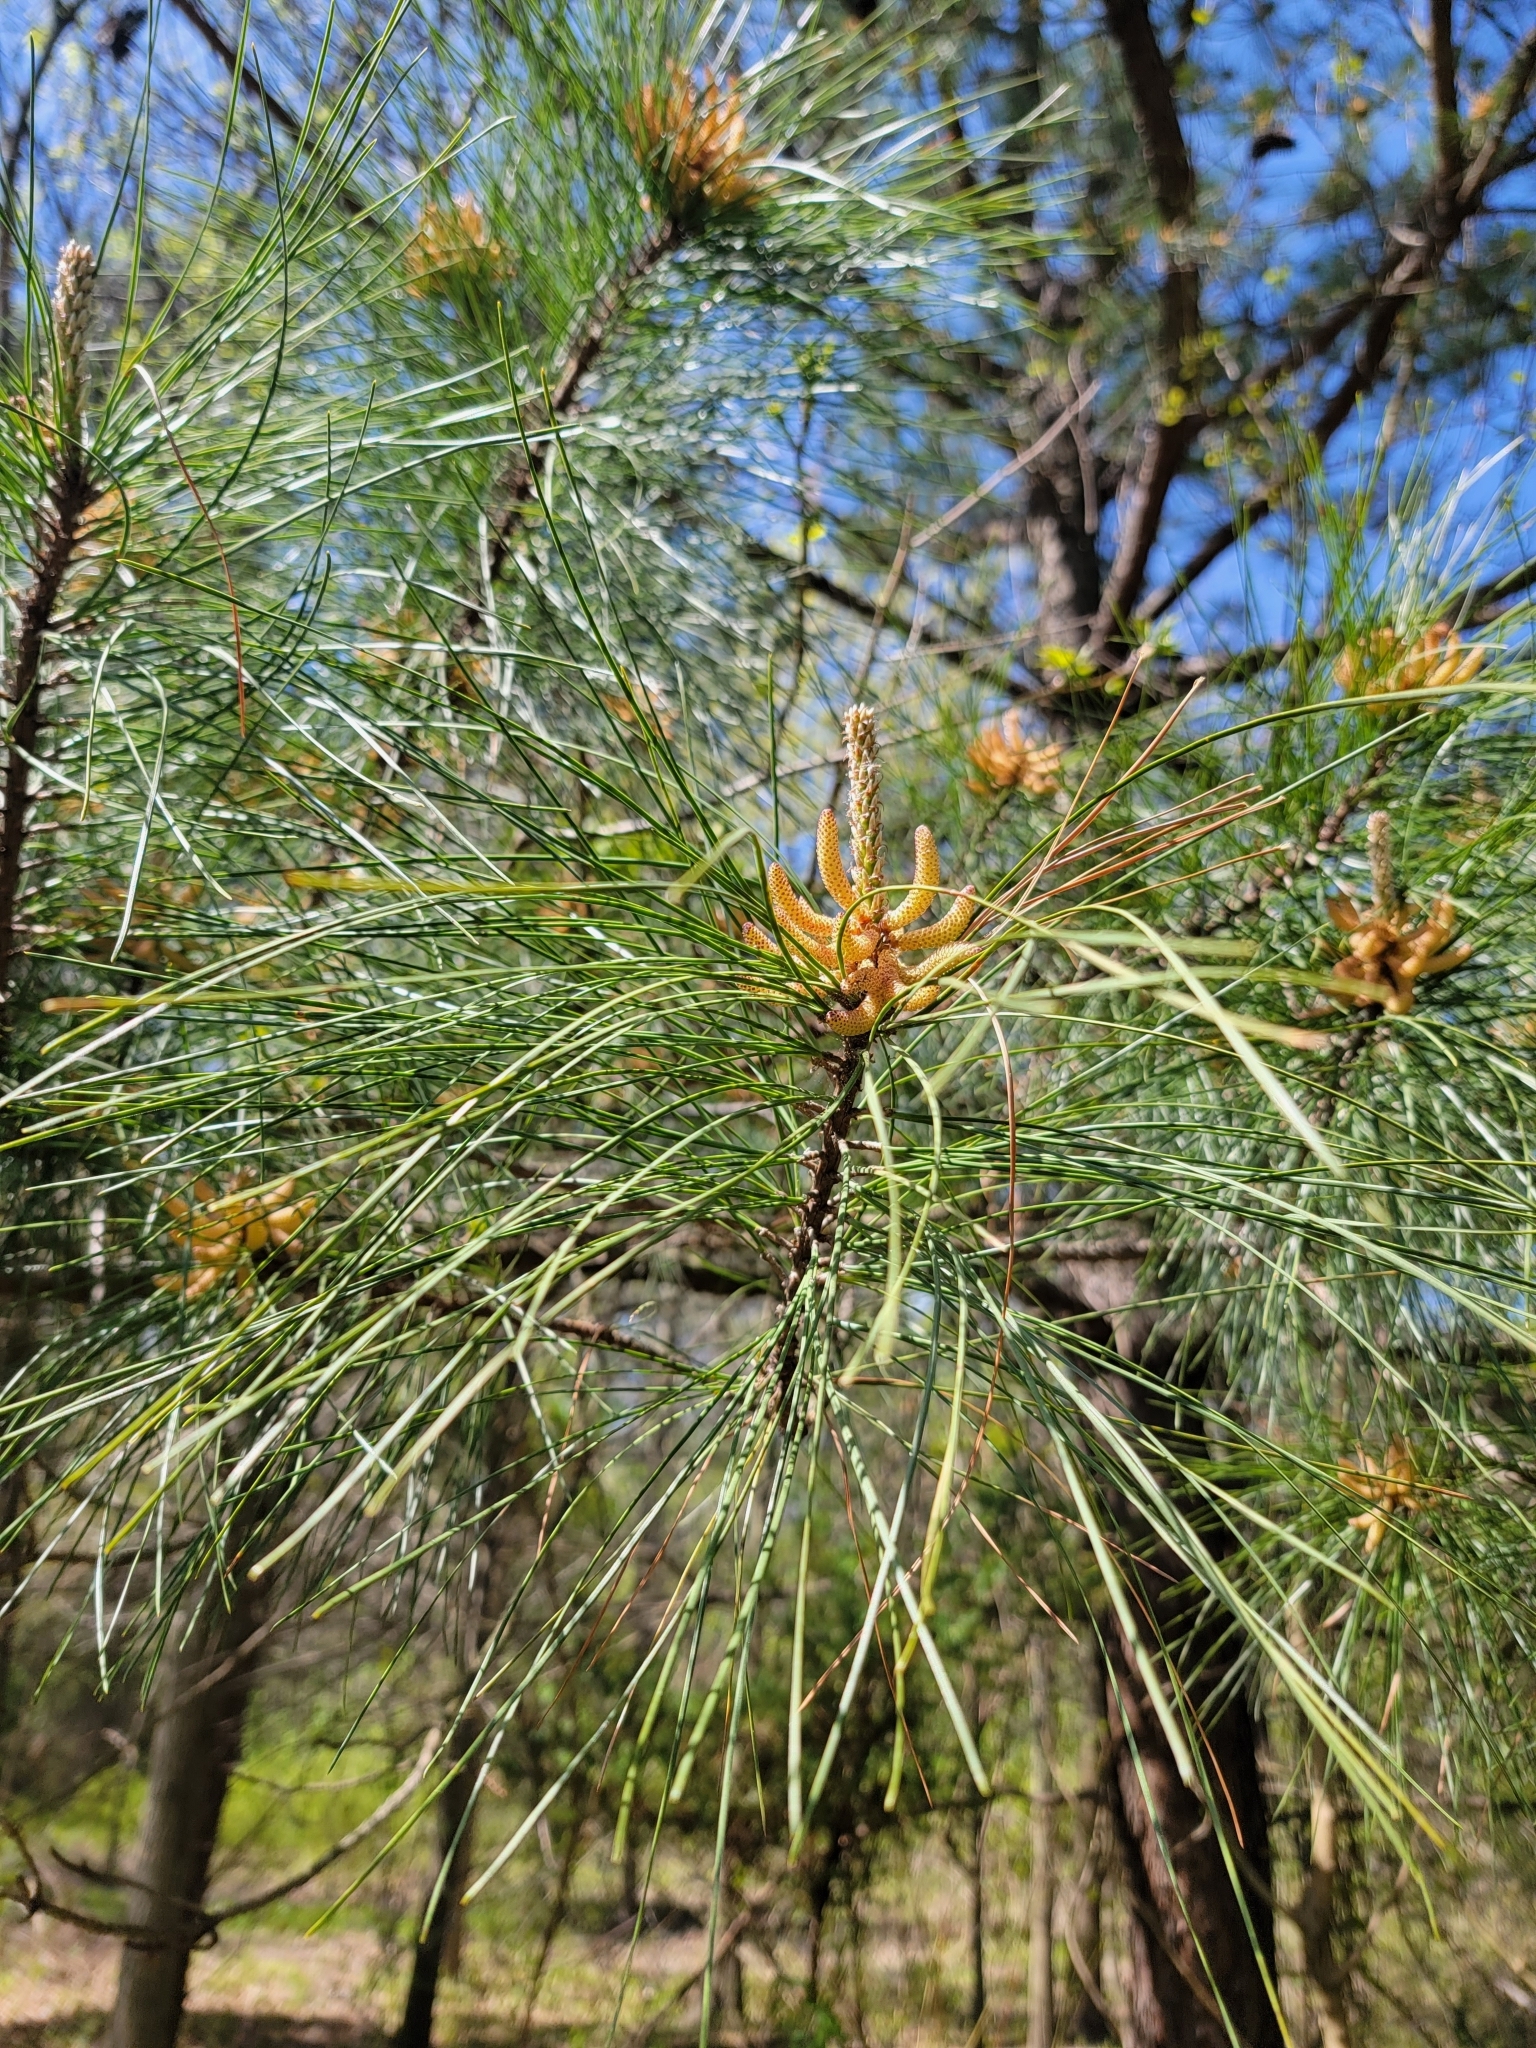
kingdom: Plantae
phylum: Tracheophyta
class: Pinopsida
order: Pinales
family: Pinaceae
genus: Pinus
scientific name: Pinus strobus
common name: Weymouth pine
